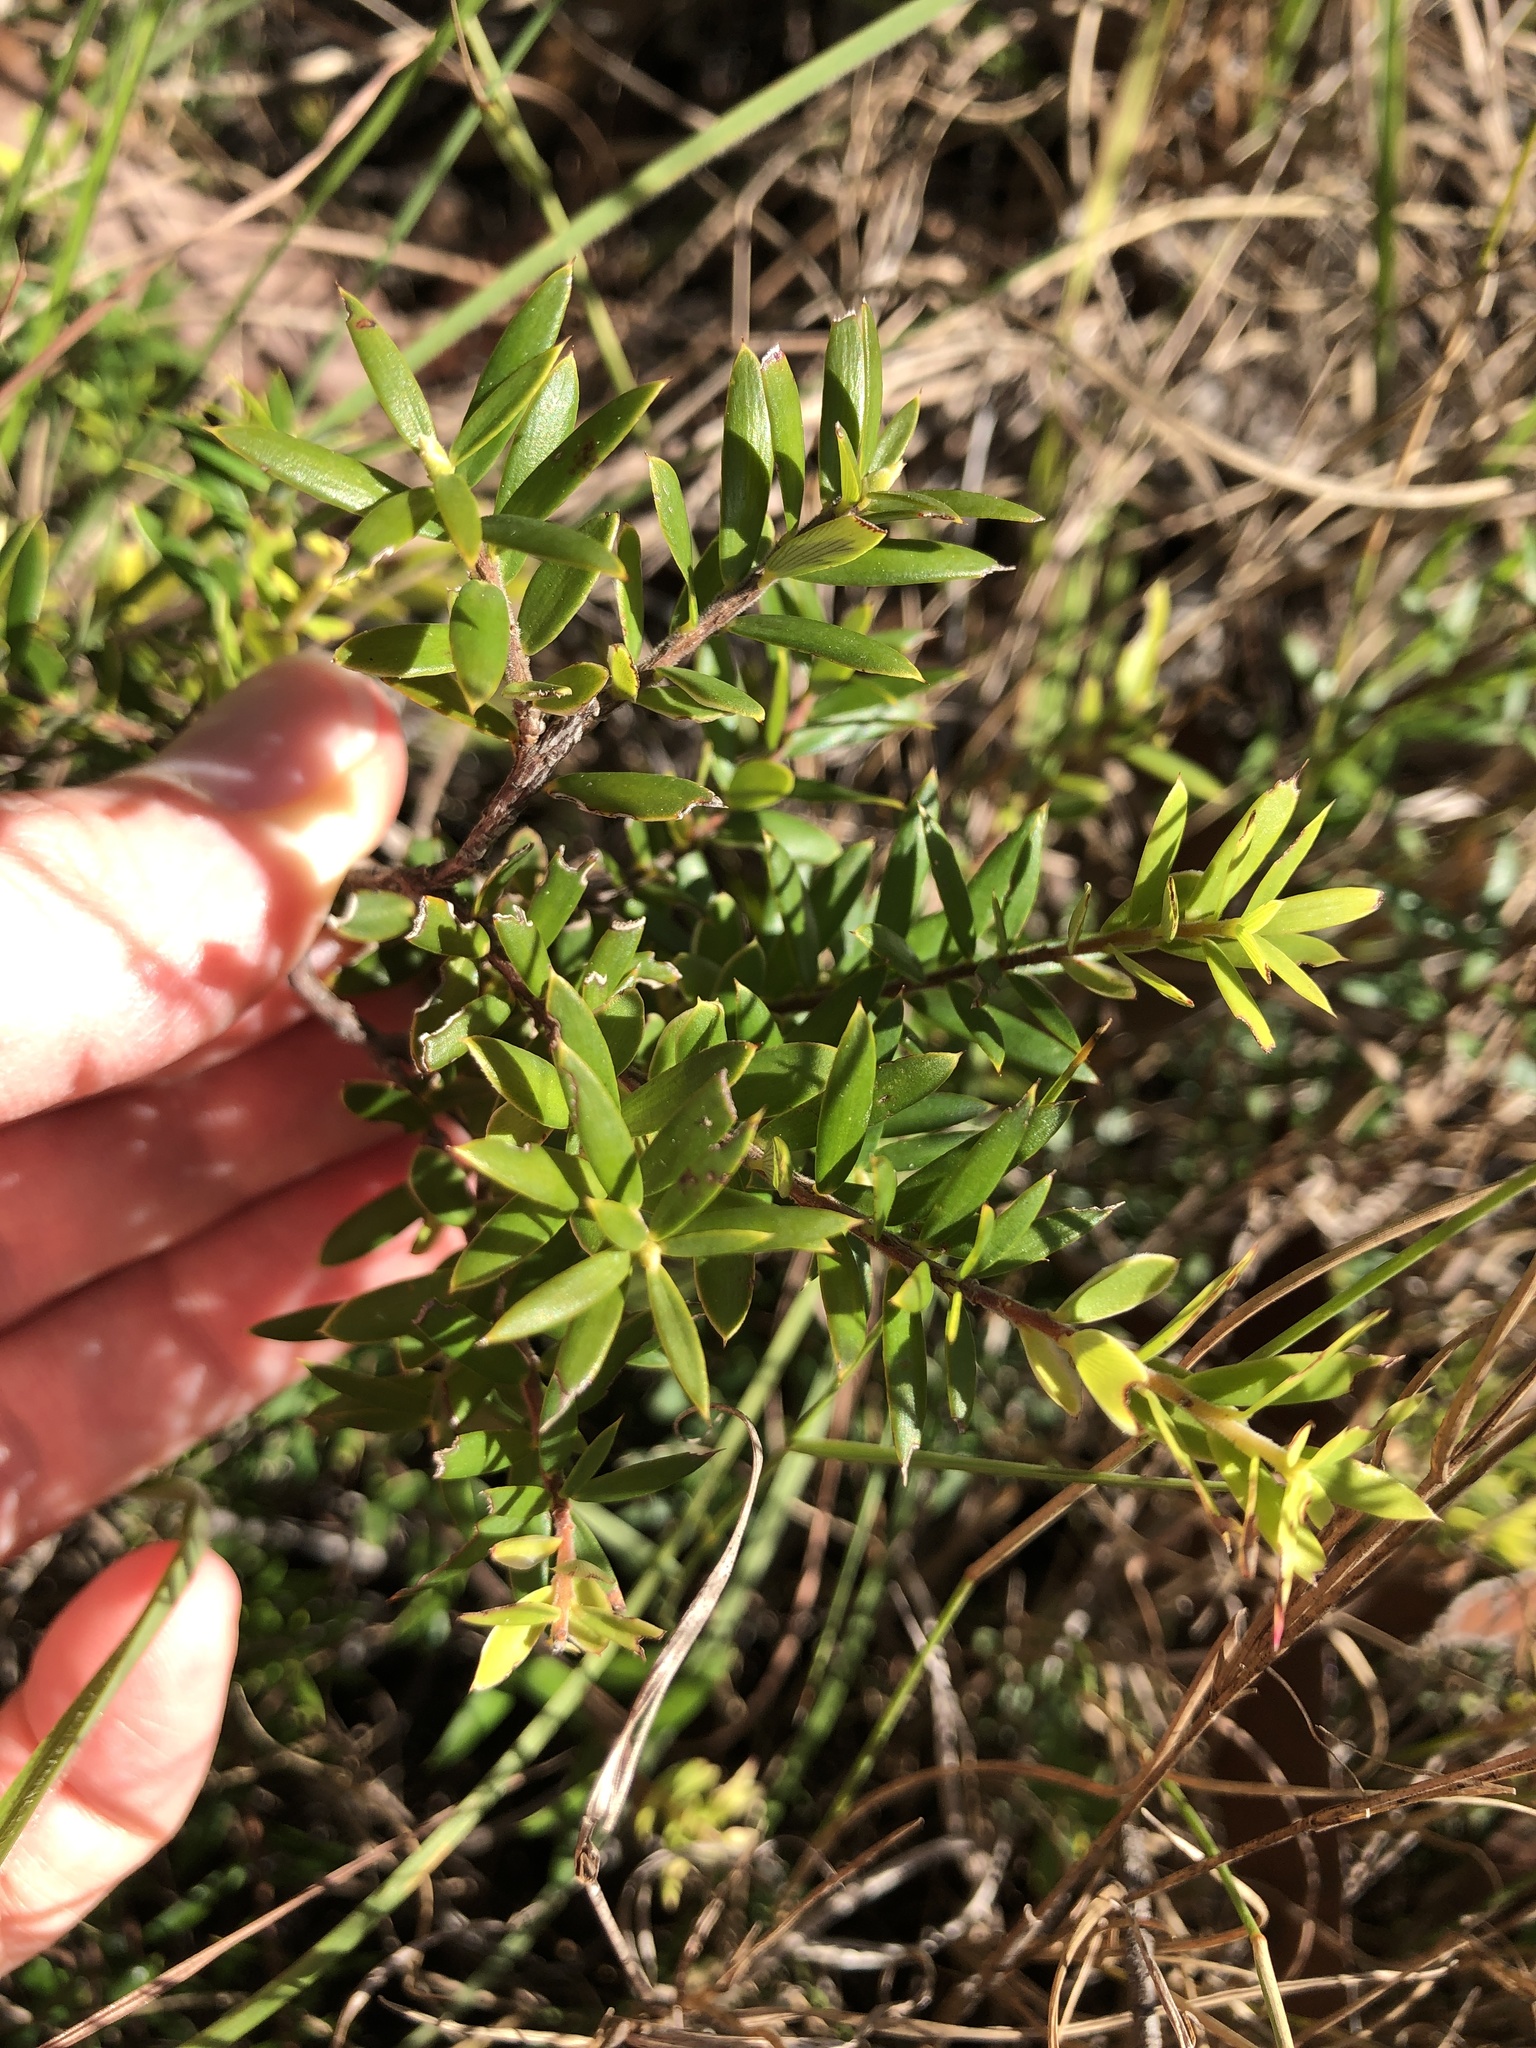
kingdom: Plantae
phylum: Tracheophyta
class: Magnoliopsida
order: Ericales
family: Ericaceae
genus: Acrotriche
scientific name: Acrotriche aggregata
